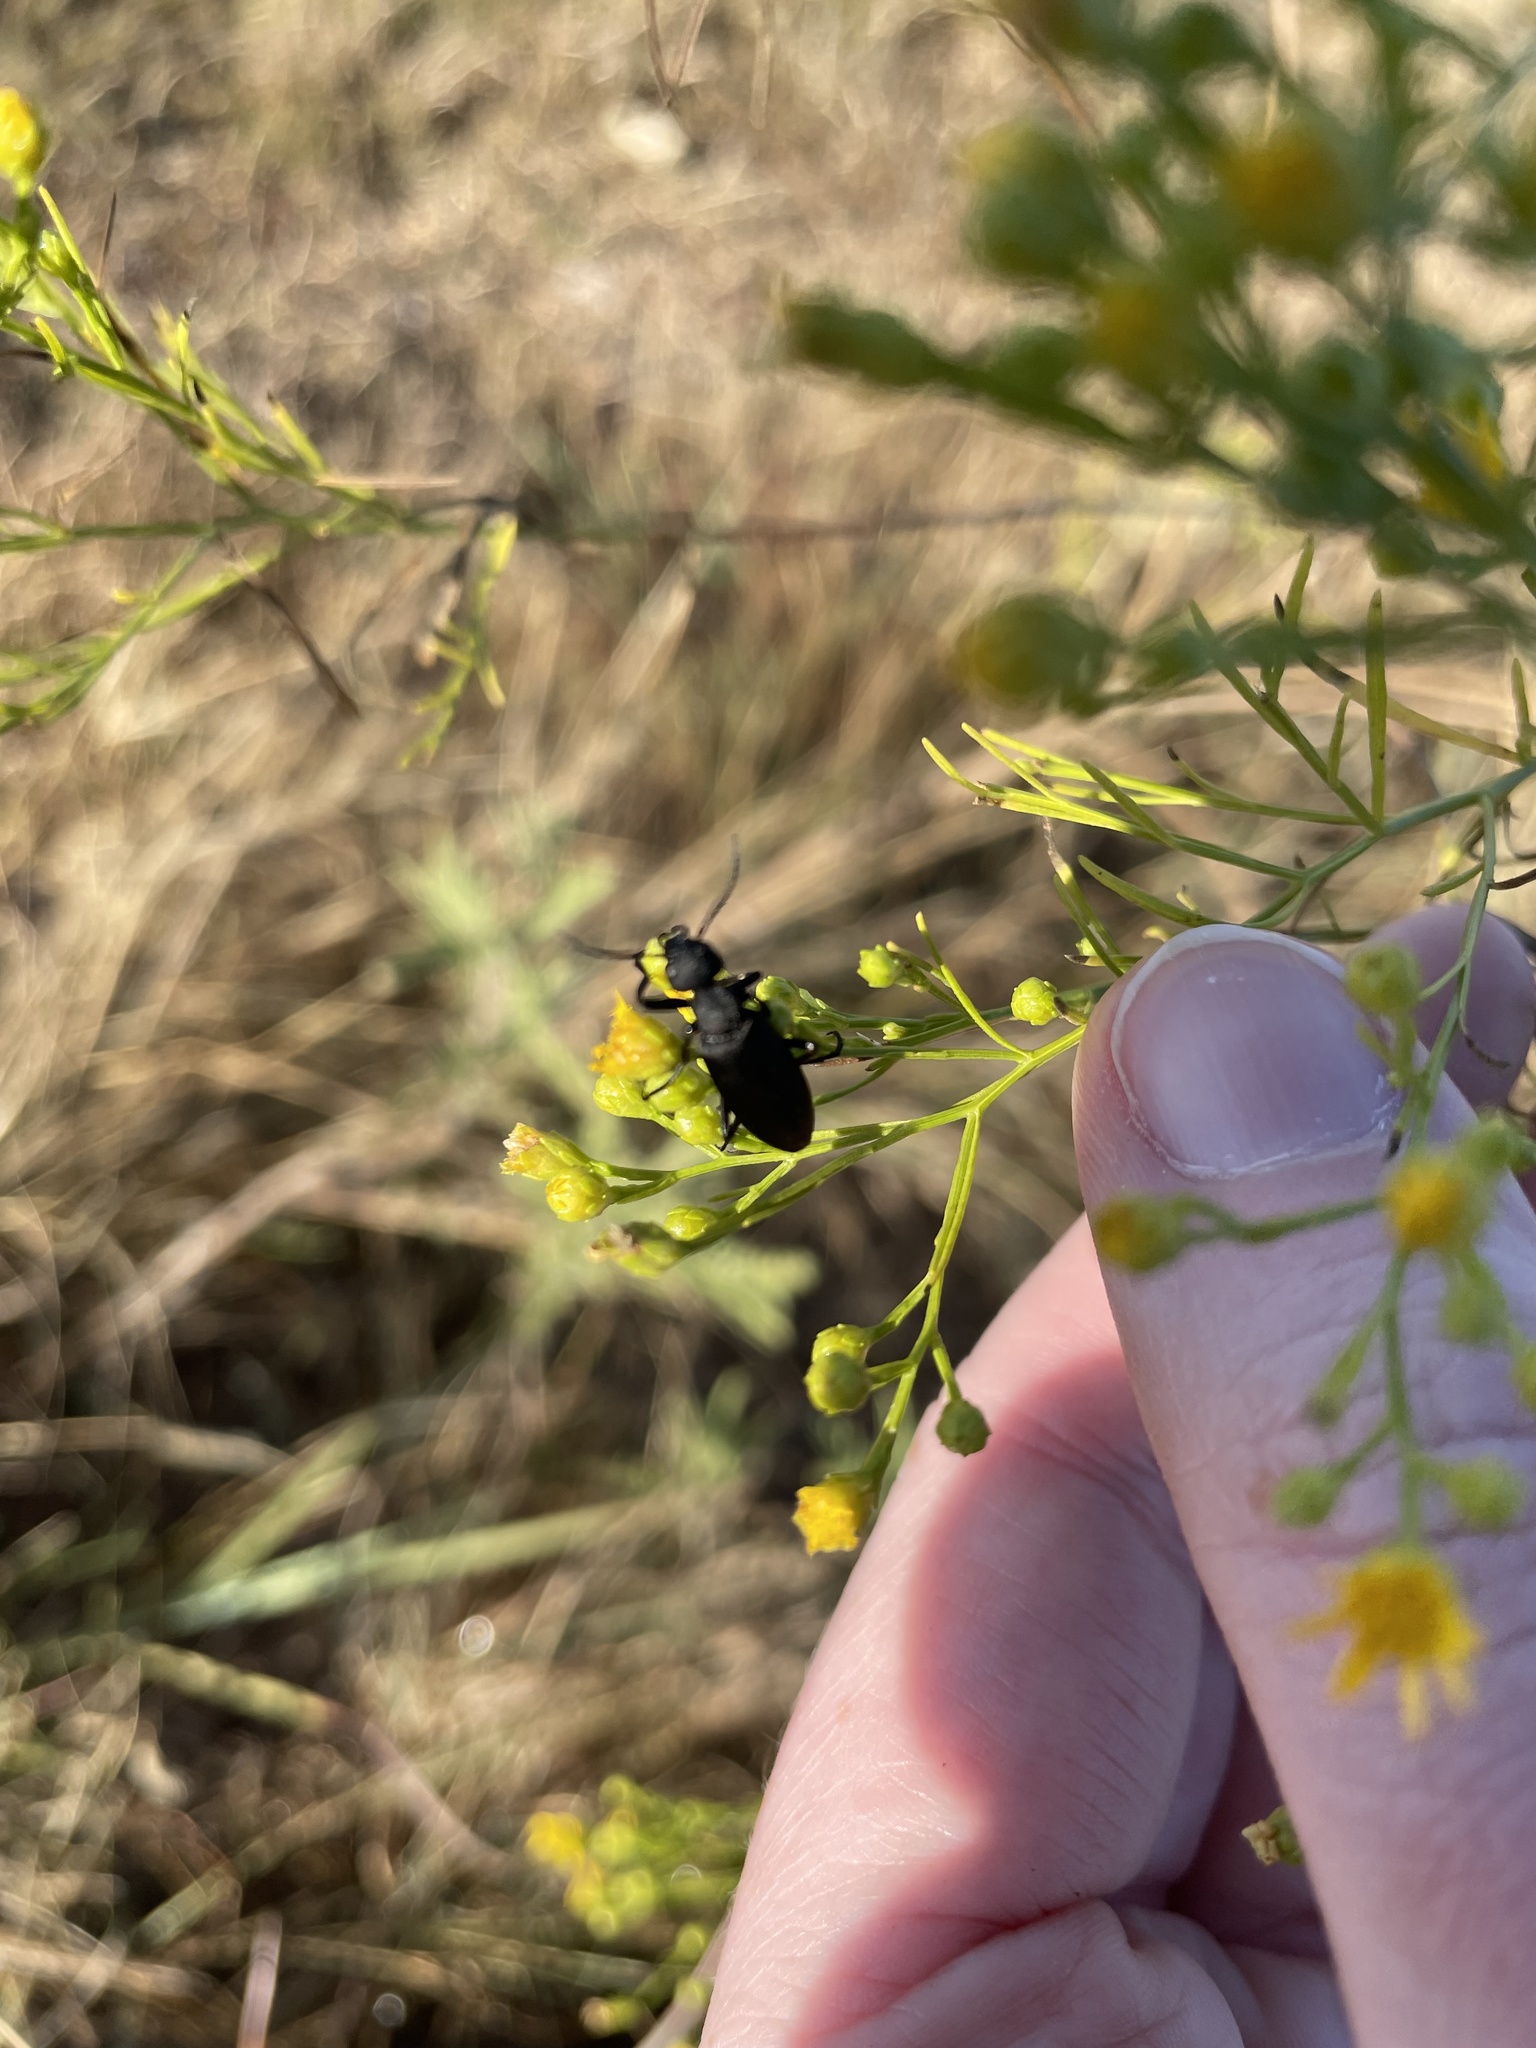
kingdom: Animalia
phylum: Arthropoda
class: Insecta
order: Coleoptera
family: Meloidae
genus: Epicauta
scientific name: Epicauta pensylvanica
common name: Black blister beetle
